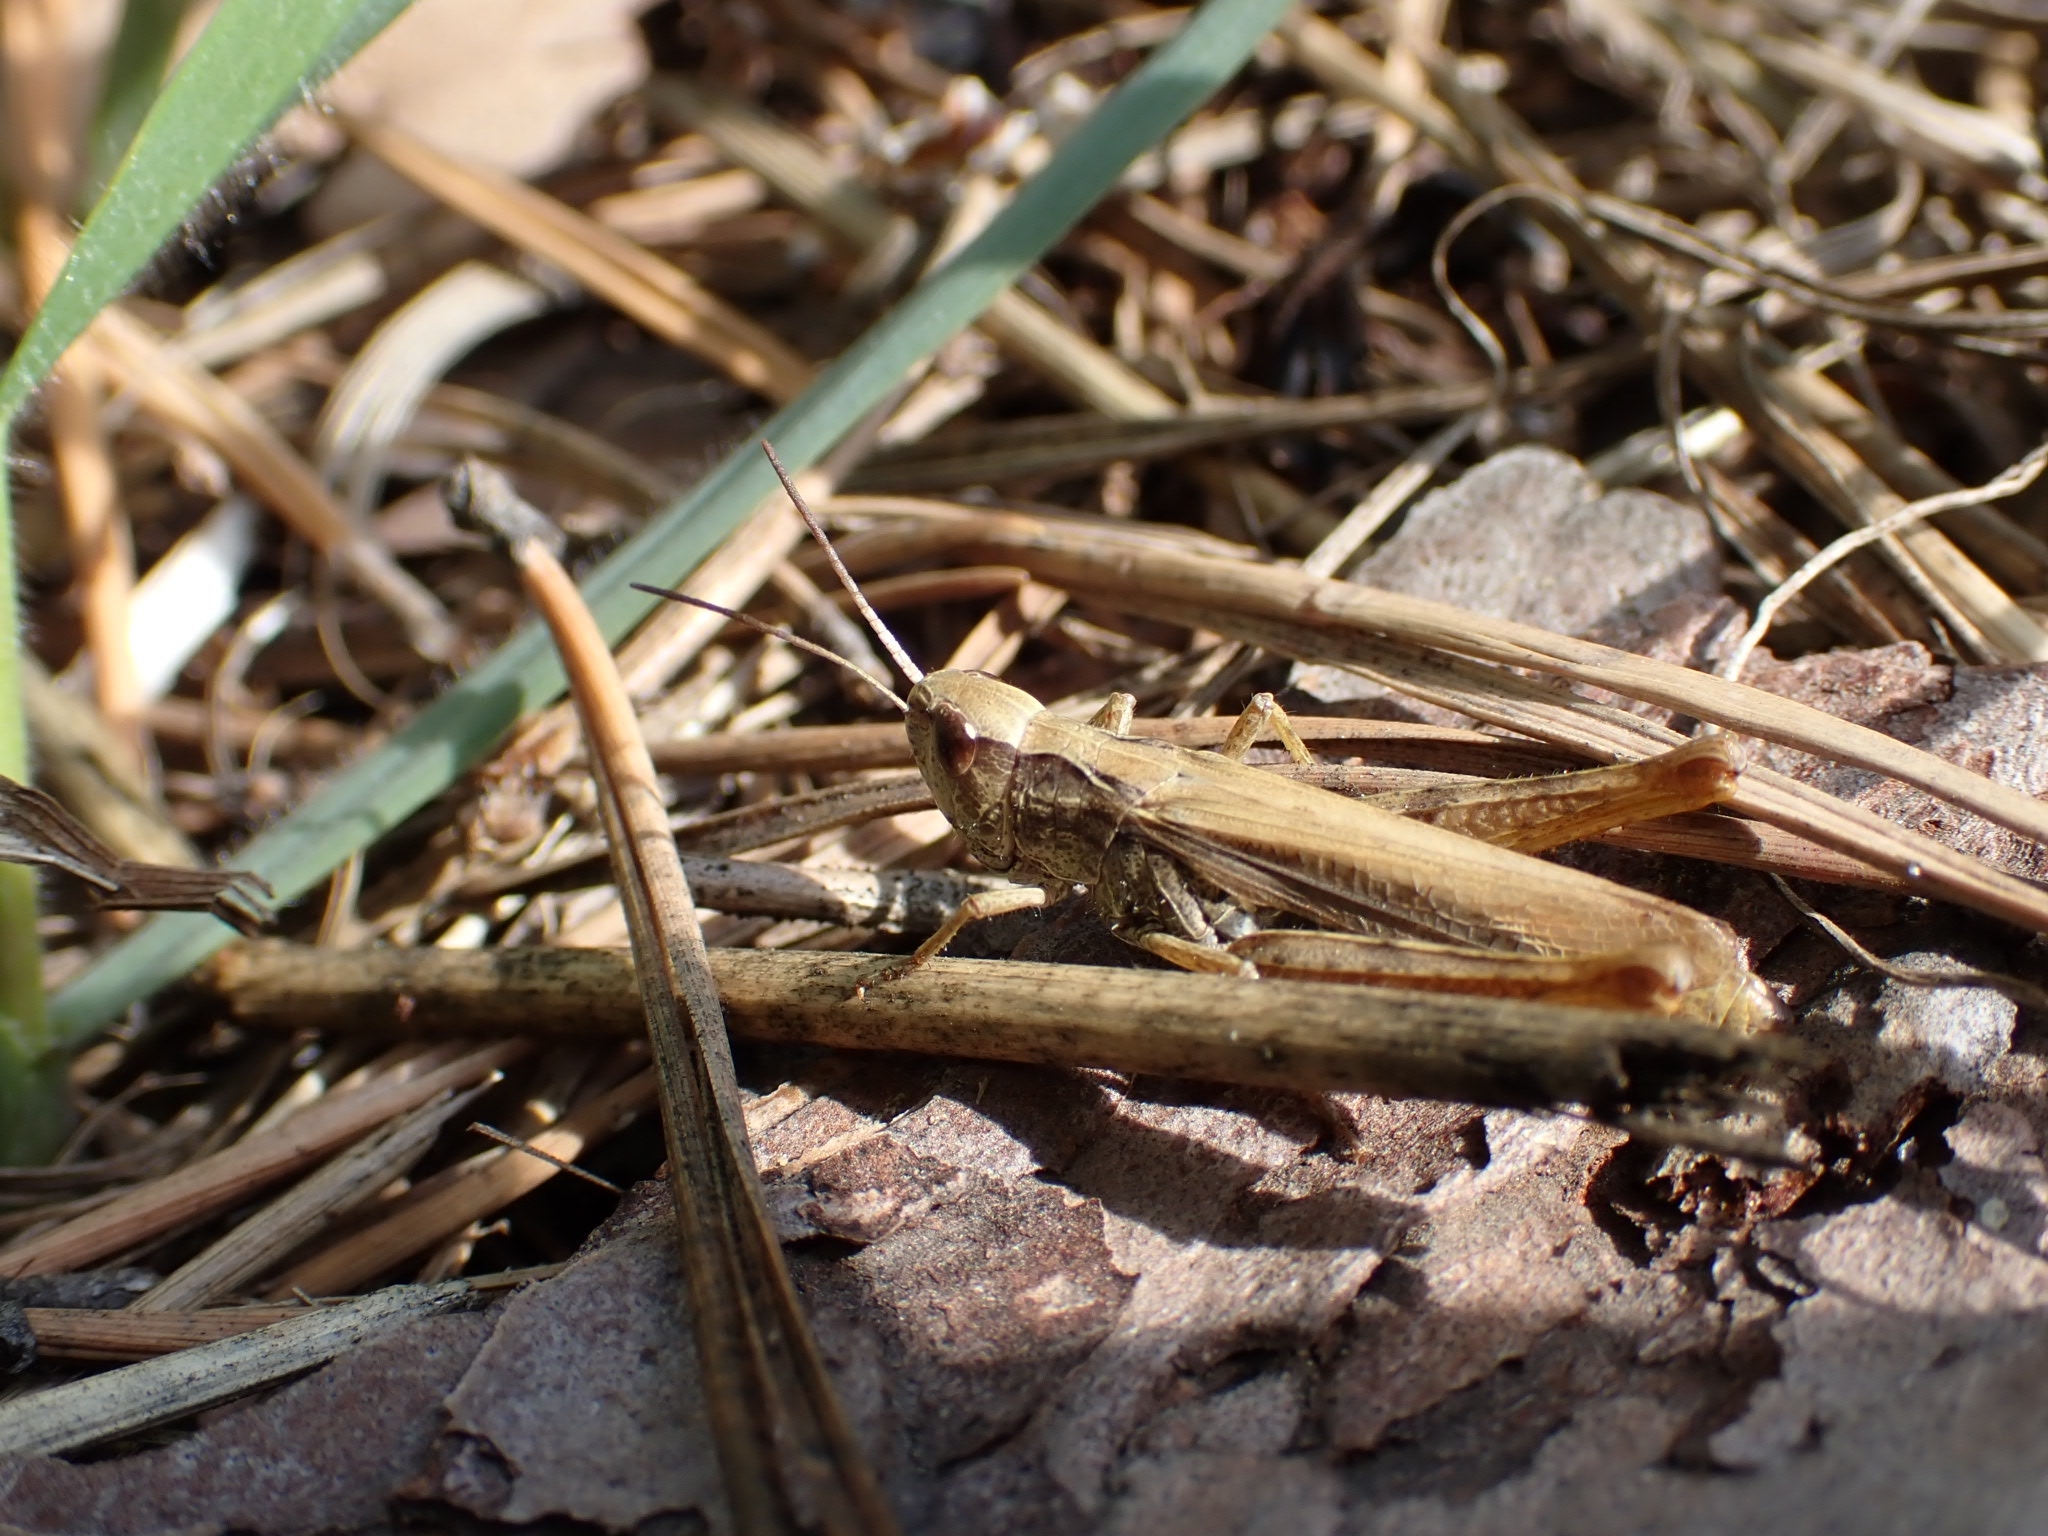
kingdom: Animalia
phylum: Arthropoda
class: Insecta
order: Orthoptera
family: Acrididae
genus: Chorthippus
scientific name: Chorthippus apricarius
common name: Upland field grasshopper
